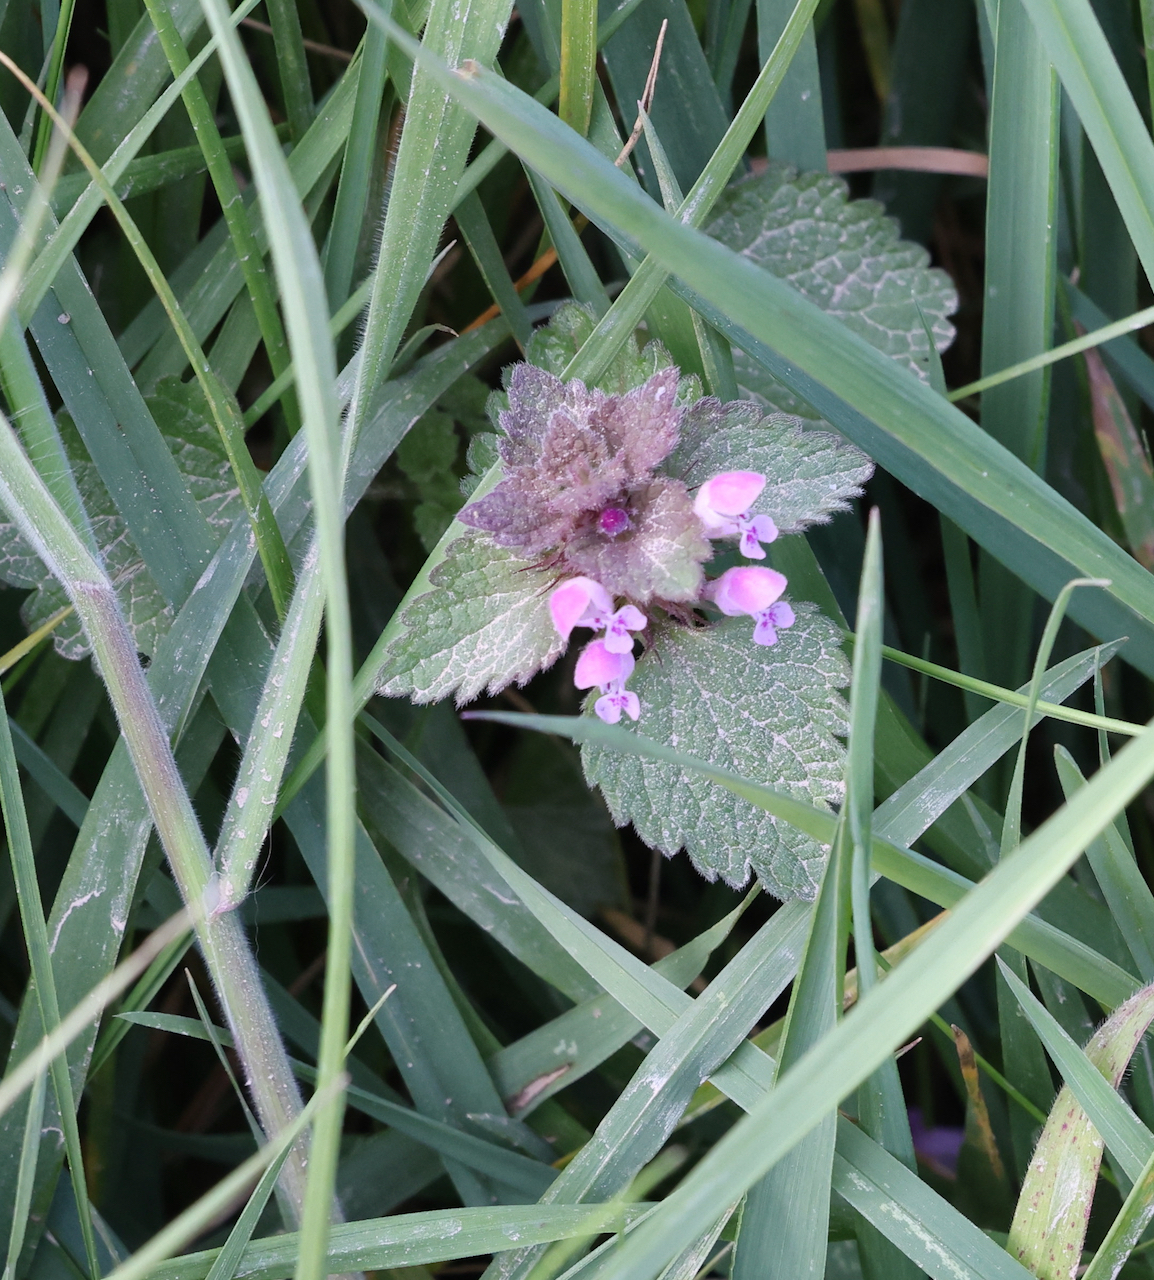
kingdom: Plantae
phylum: Tracheophyta
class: Magnoliopsida
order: Lamiales
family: Lamiaceae
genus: Lamium
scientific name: Lamium purpureum
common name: Red dead-nettle
